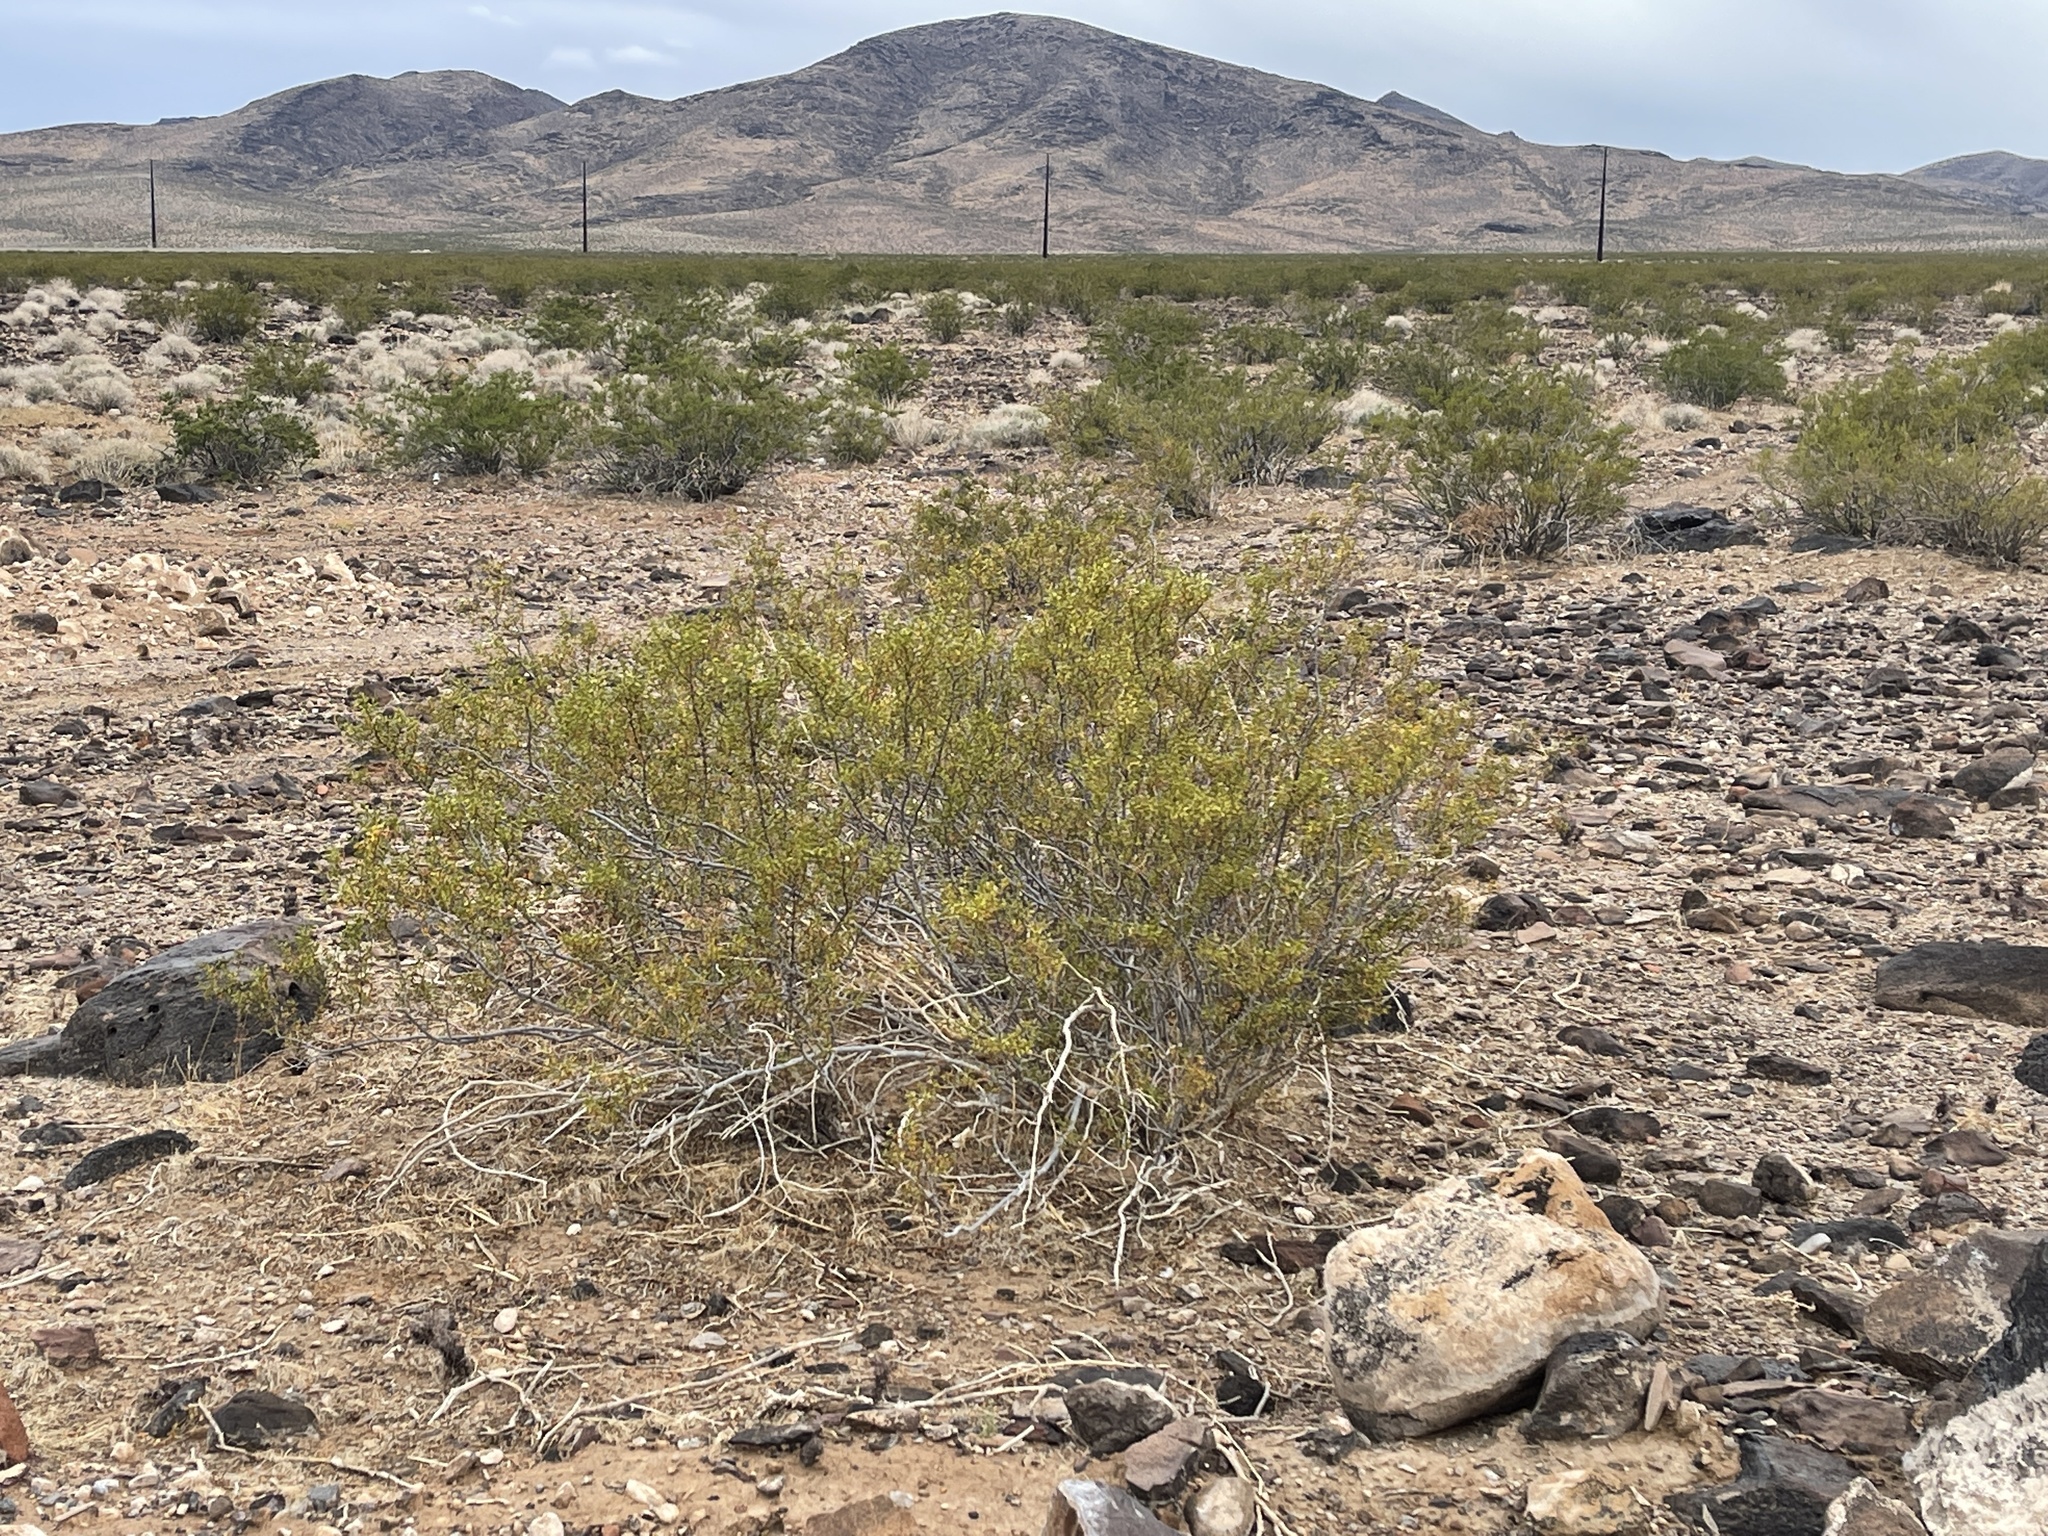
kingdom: Plantae
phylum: Tracheophyta
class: Magnoliopsida
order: Zygophyllales
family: Zygophyllaceae
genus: Larrea
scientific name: Larrea tridentata
